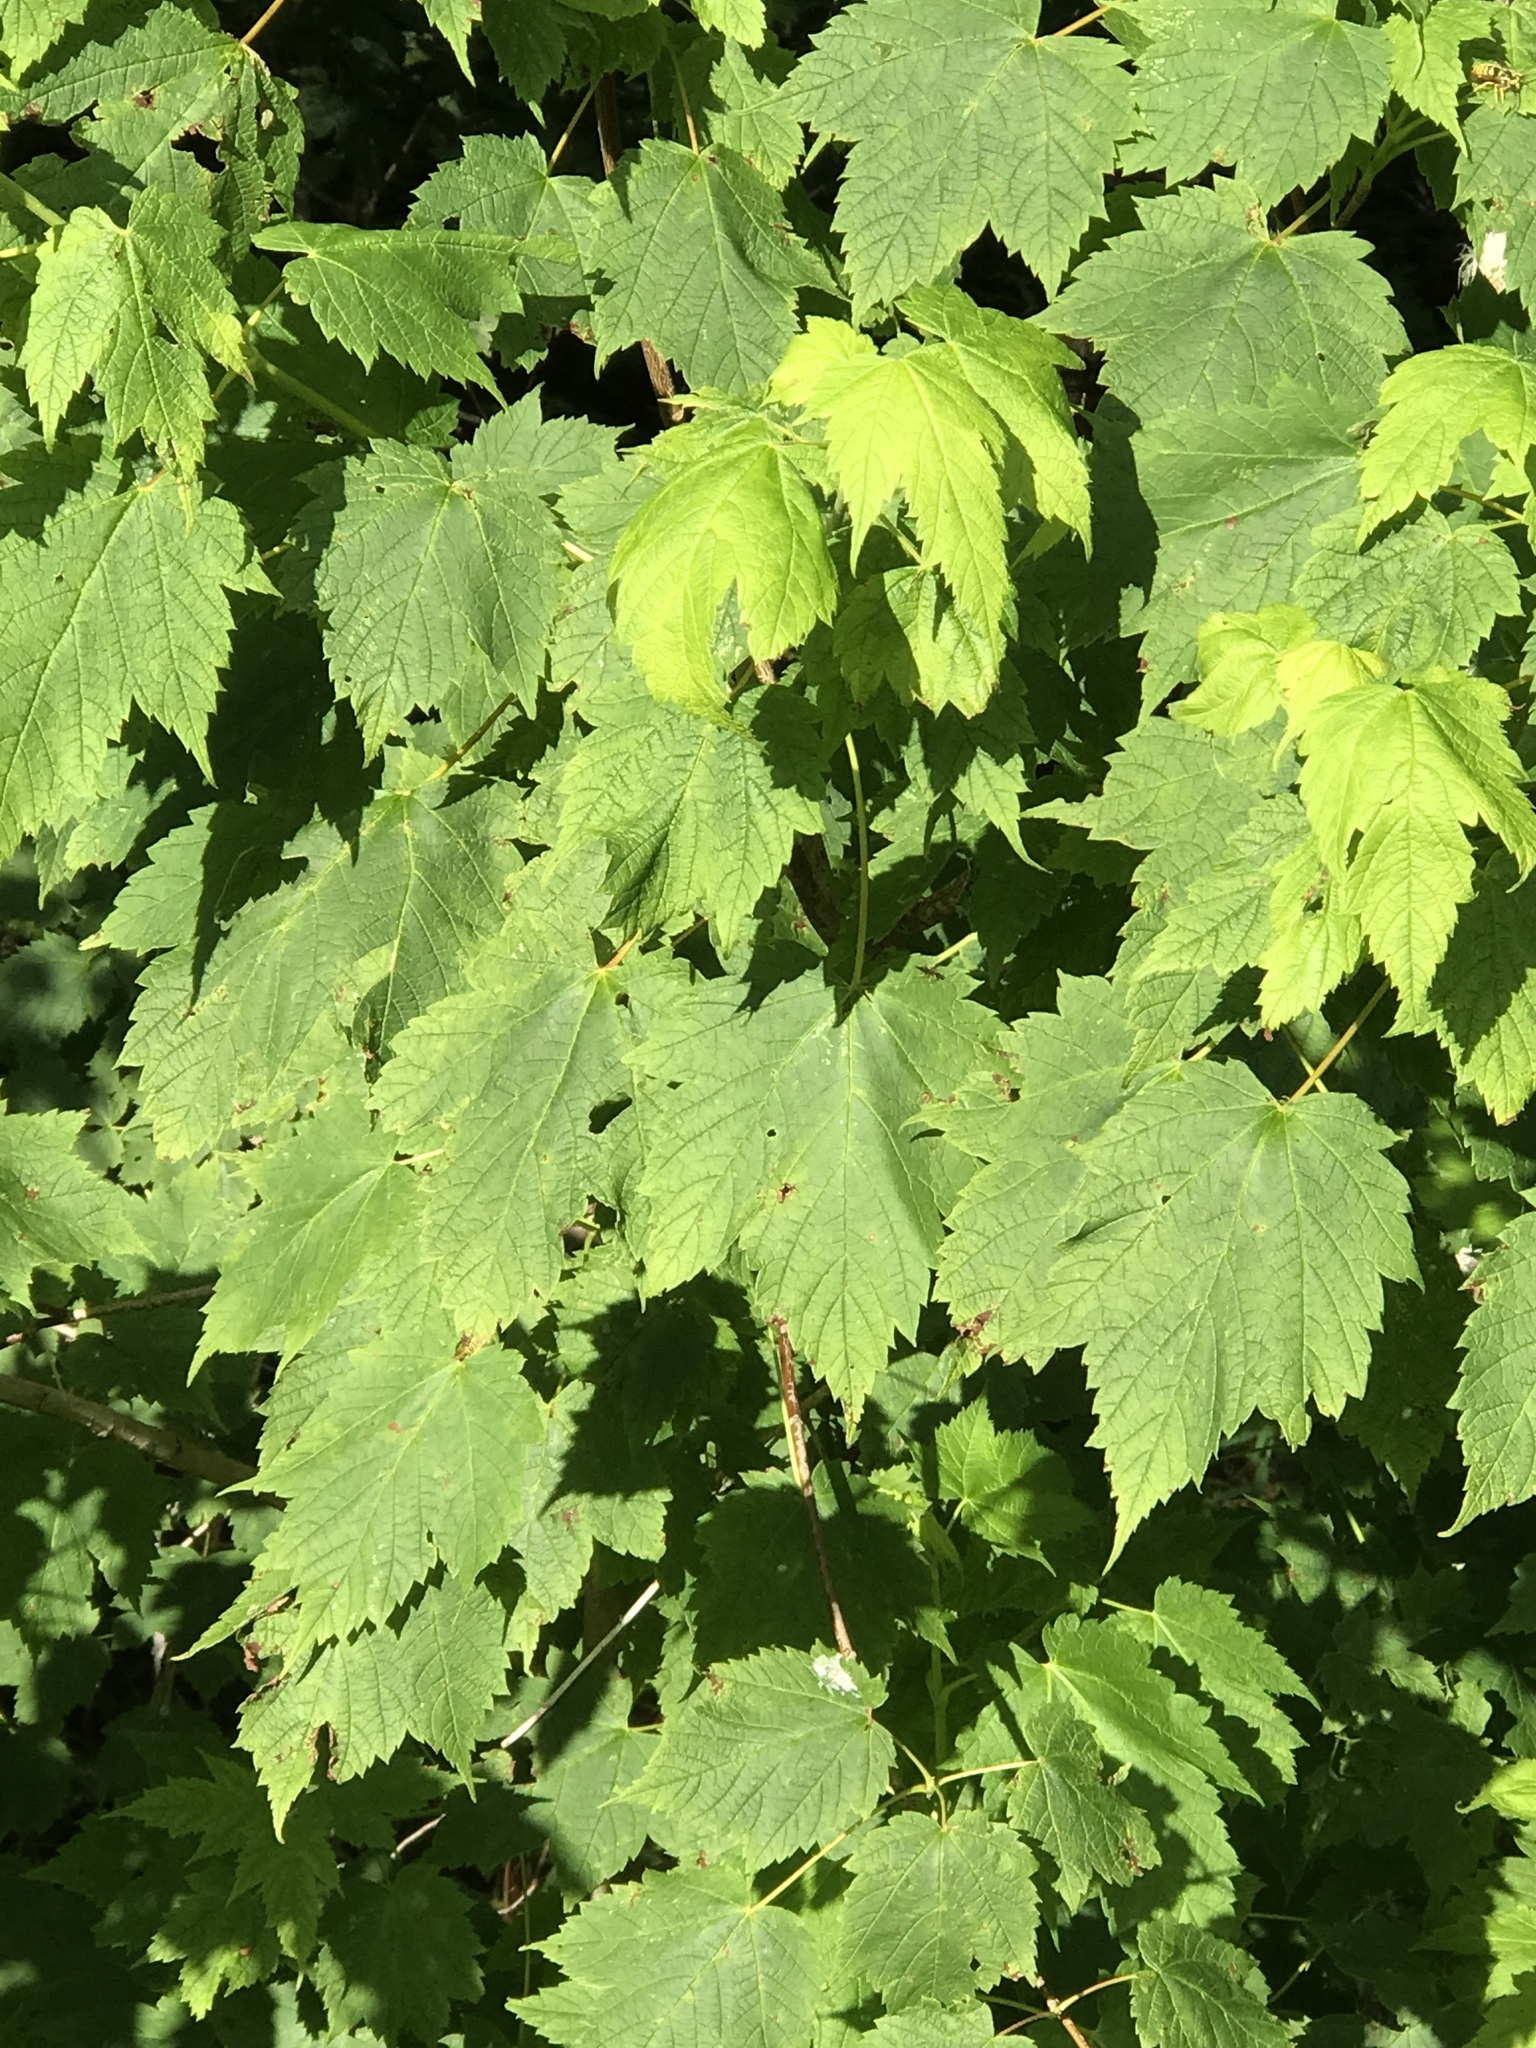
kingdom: Plantae
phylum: Tracheophyta
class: Magnoliopsida
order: Sapindales
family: Sapindaceae
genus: Acer
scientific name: Acer spicatum
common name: Mountain maple
